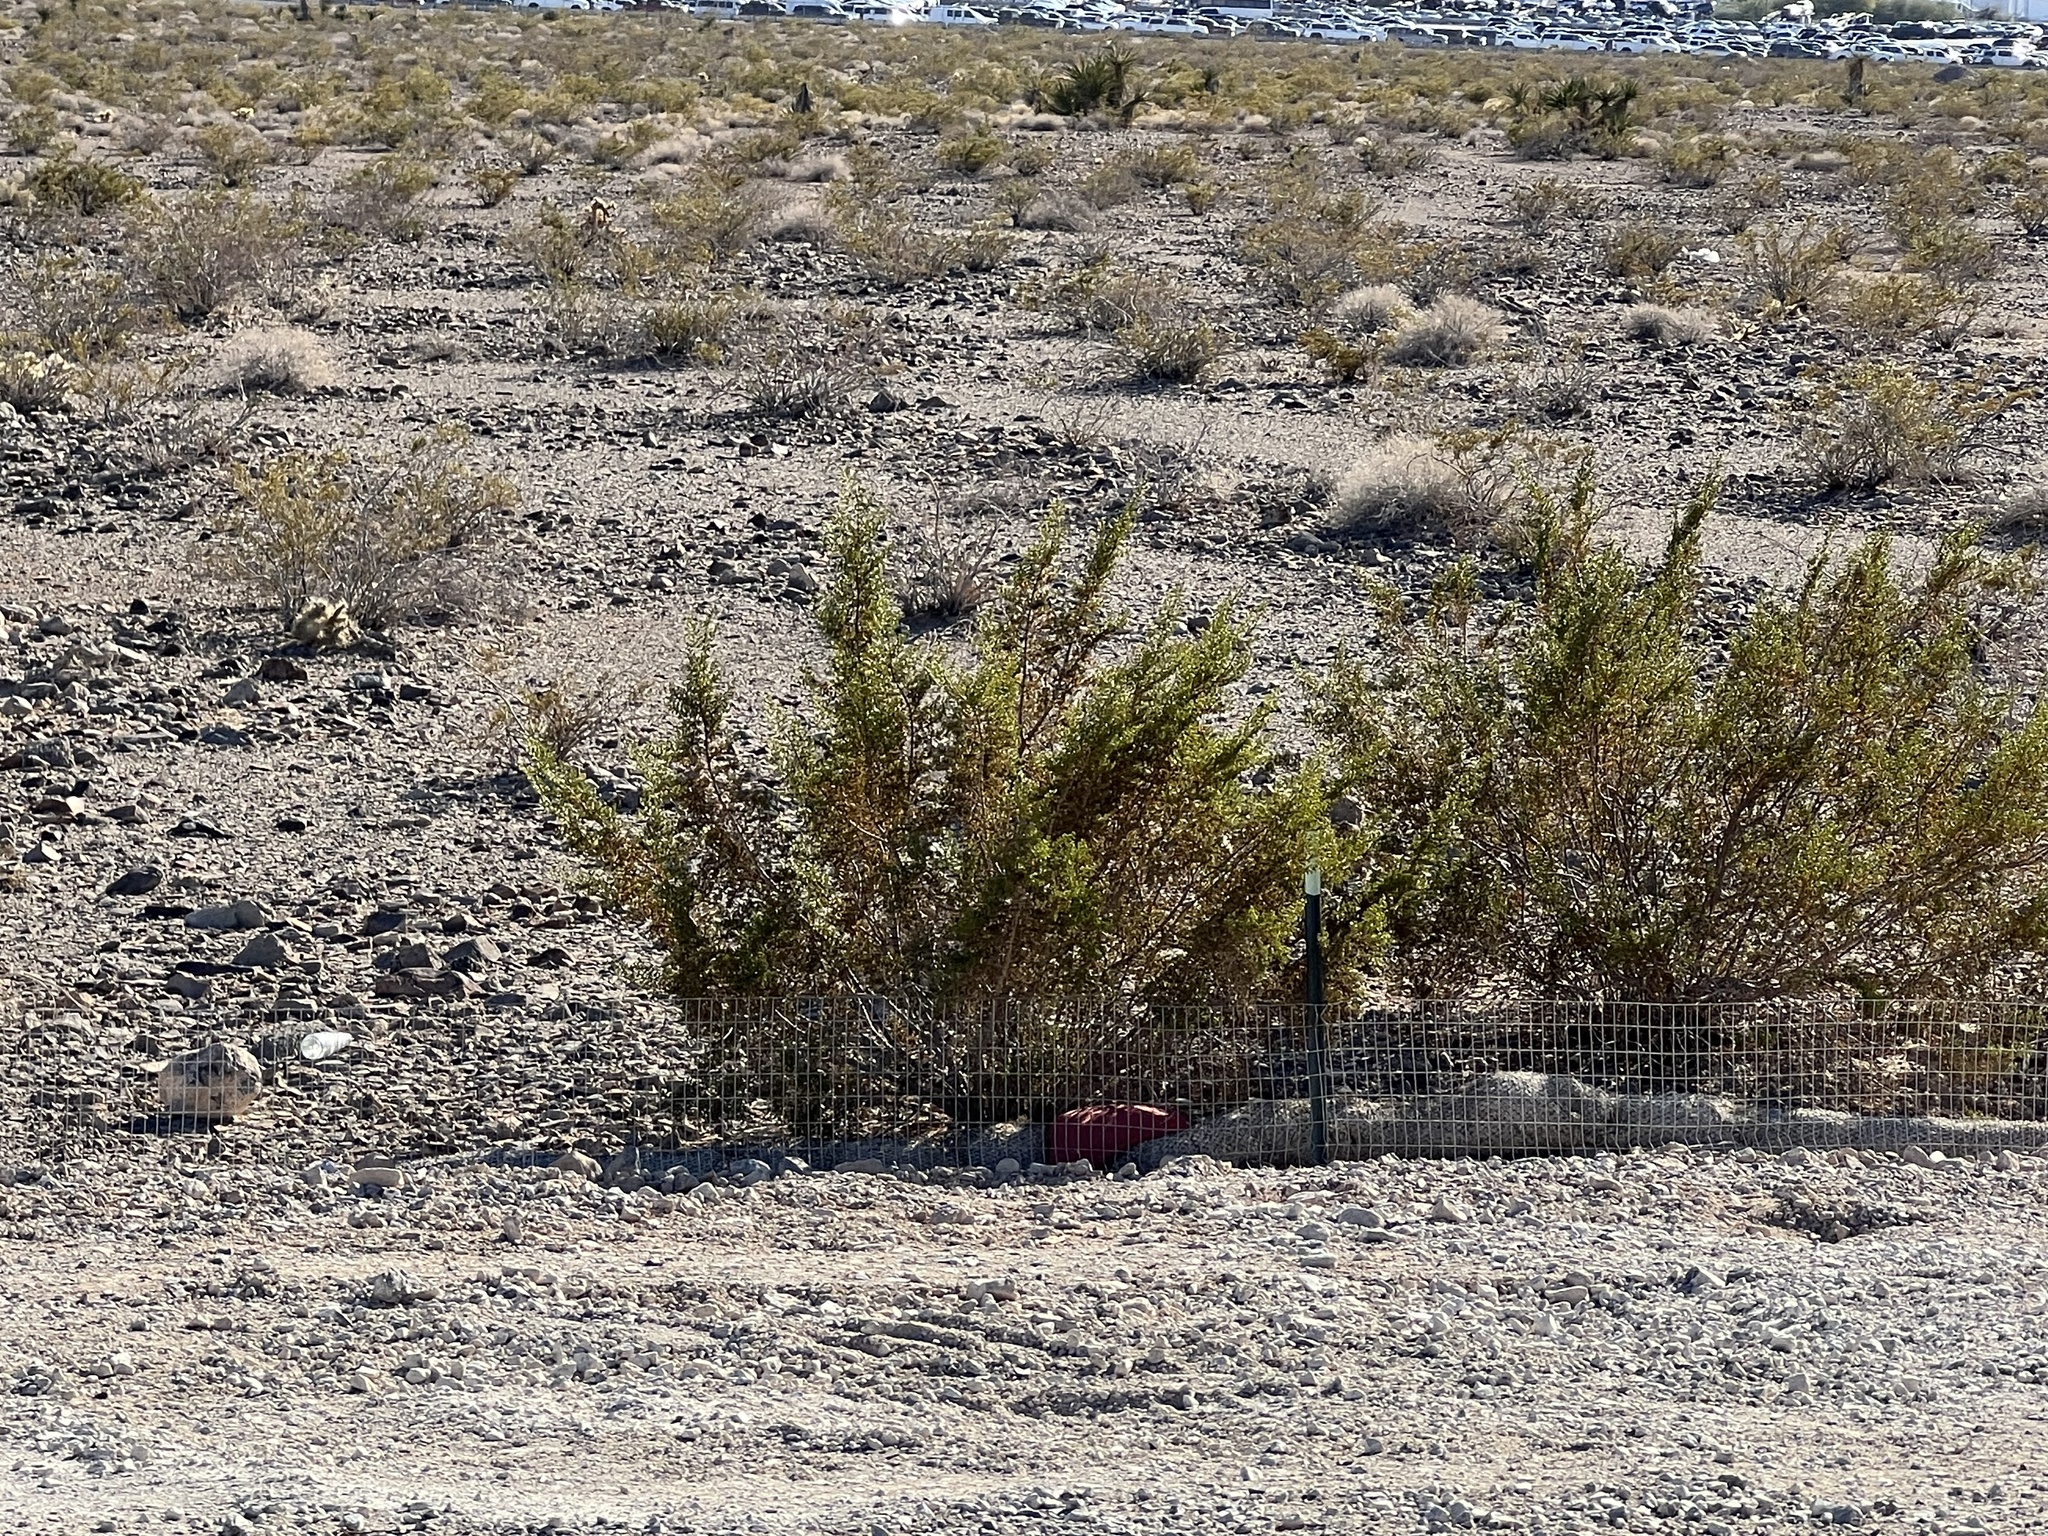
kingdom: Plantae
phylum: Tracheophyta
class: Magnoliopsida
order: Zygophyllales
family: Zygophyllaceae
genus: Larrea
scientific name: Larrea tridentata
